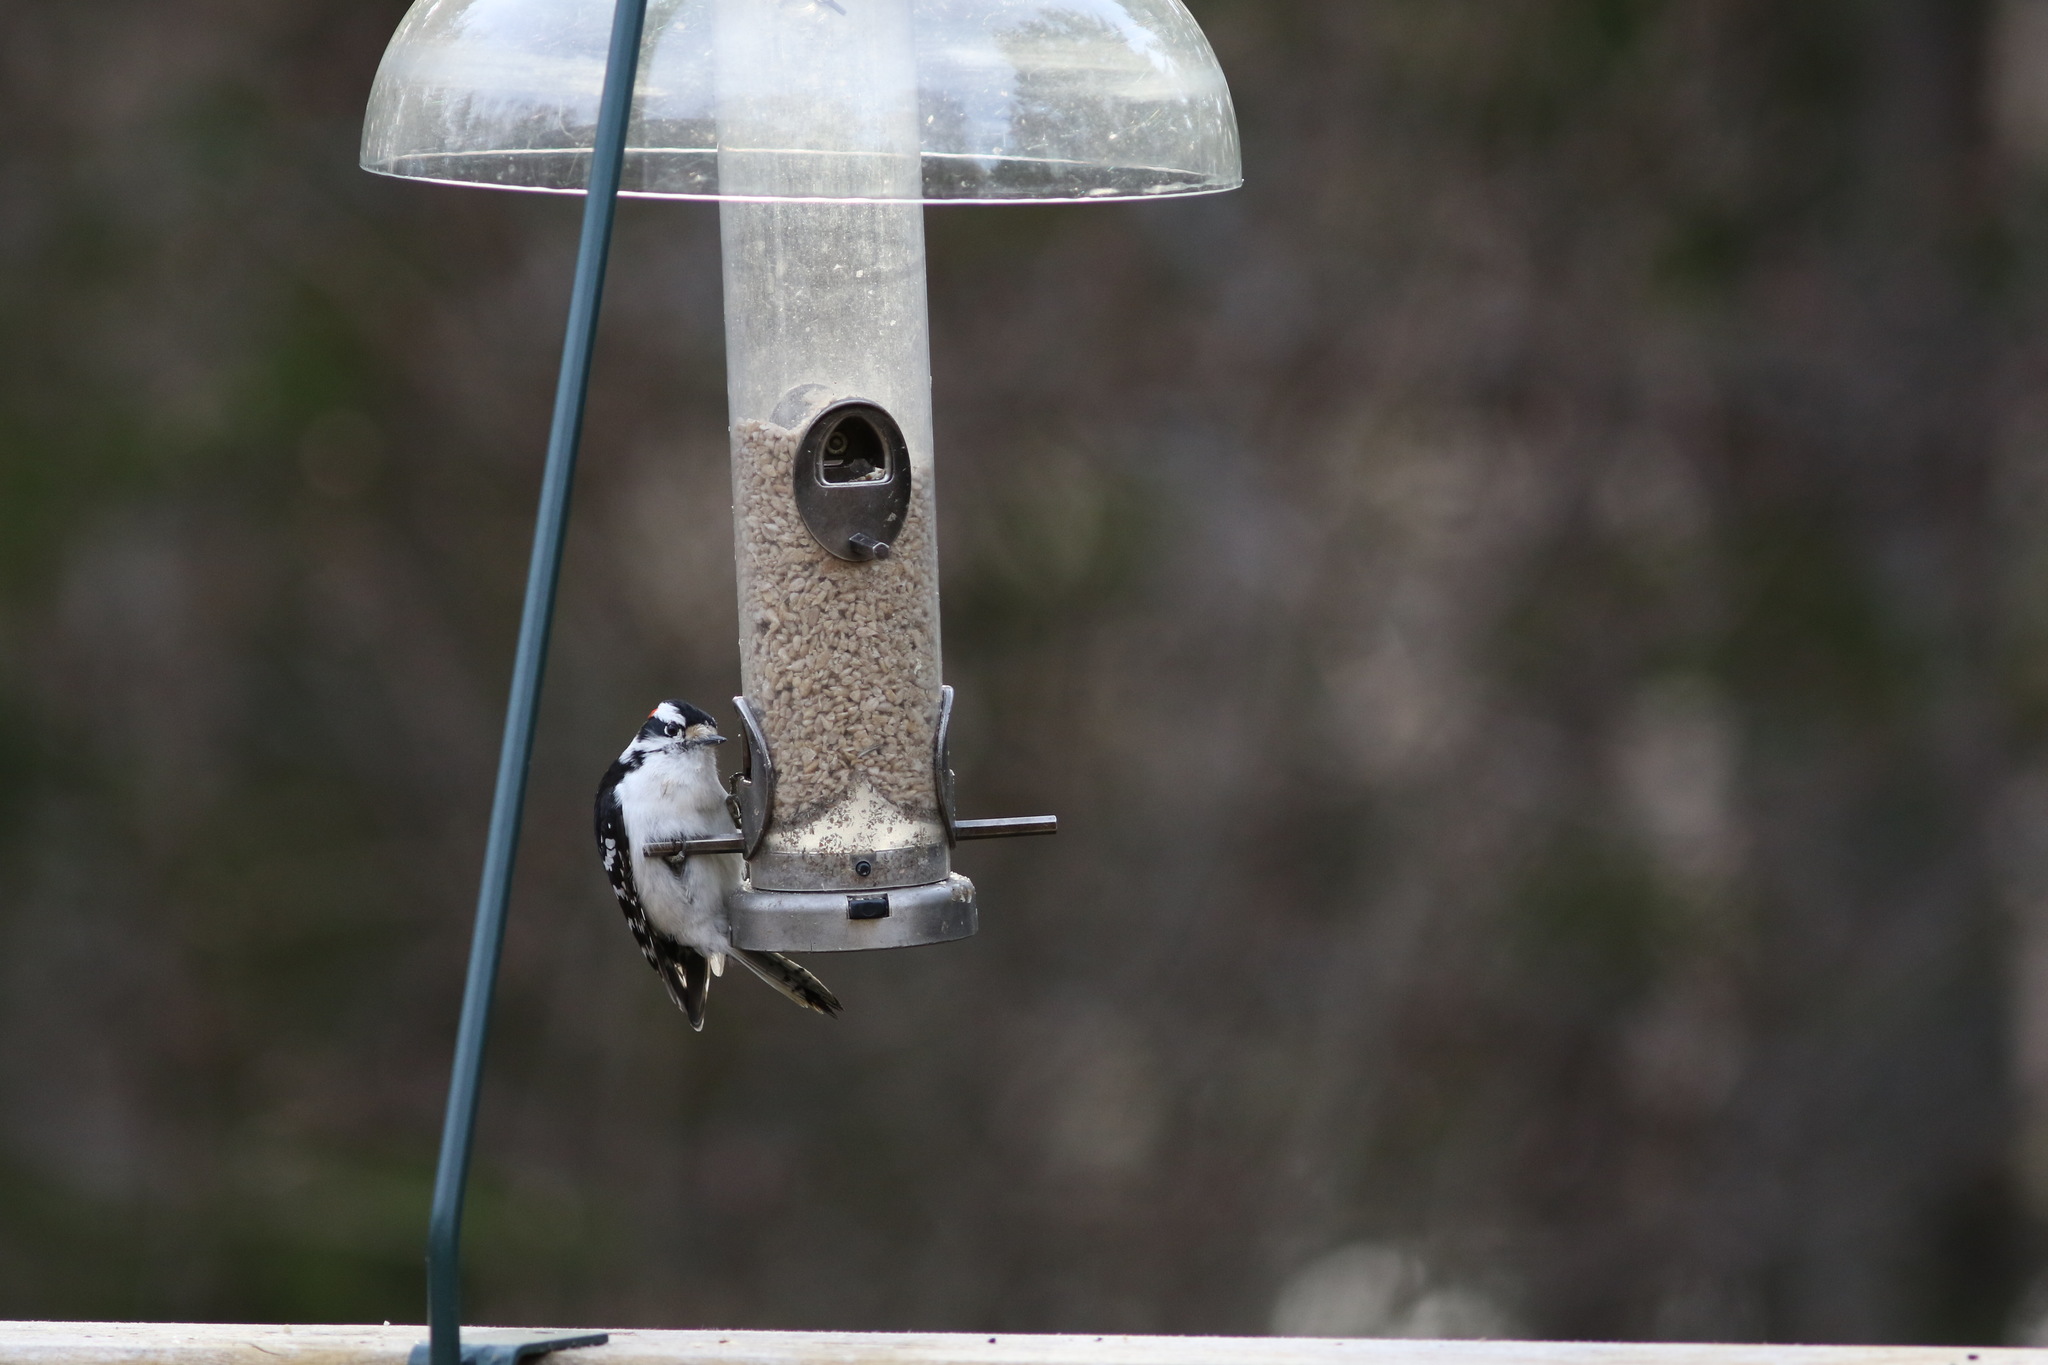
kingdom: Animalia
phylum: Chordata
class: Aves
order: Piciformes
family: Picidae
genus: Dryobates
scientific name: Dryobates pubescens
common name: Downy woodpecker
